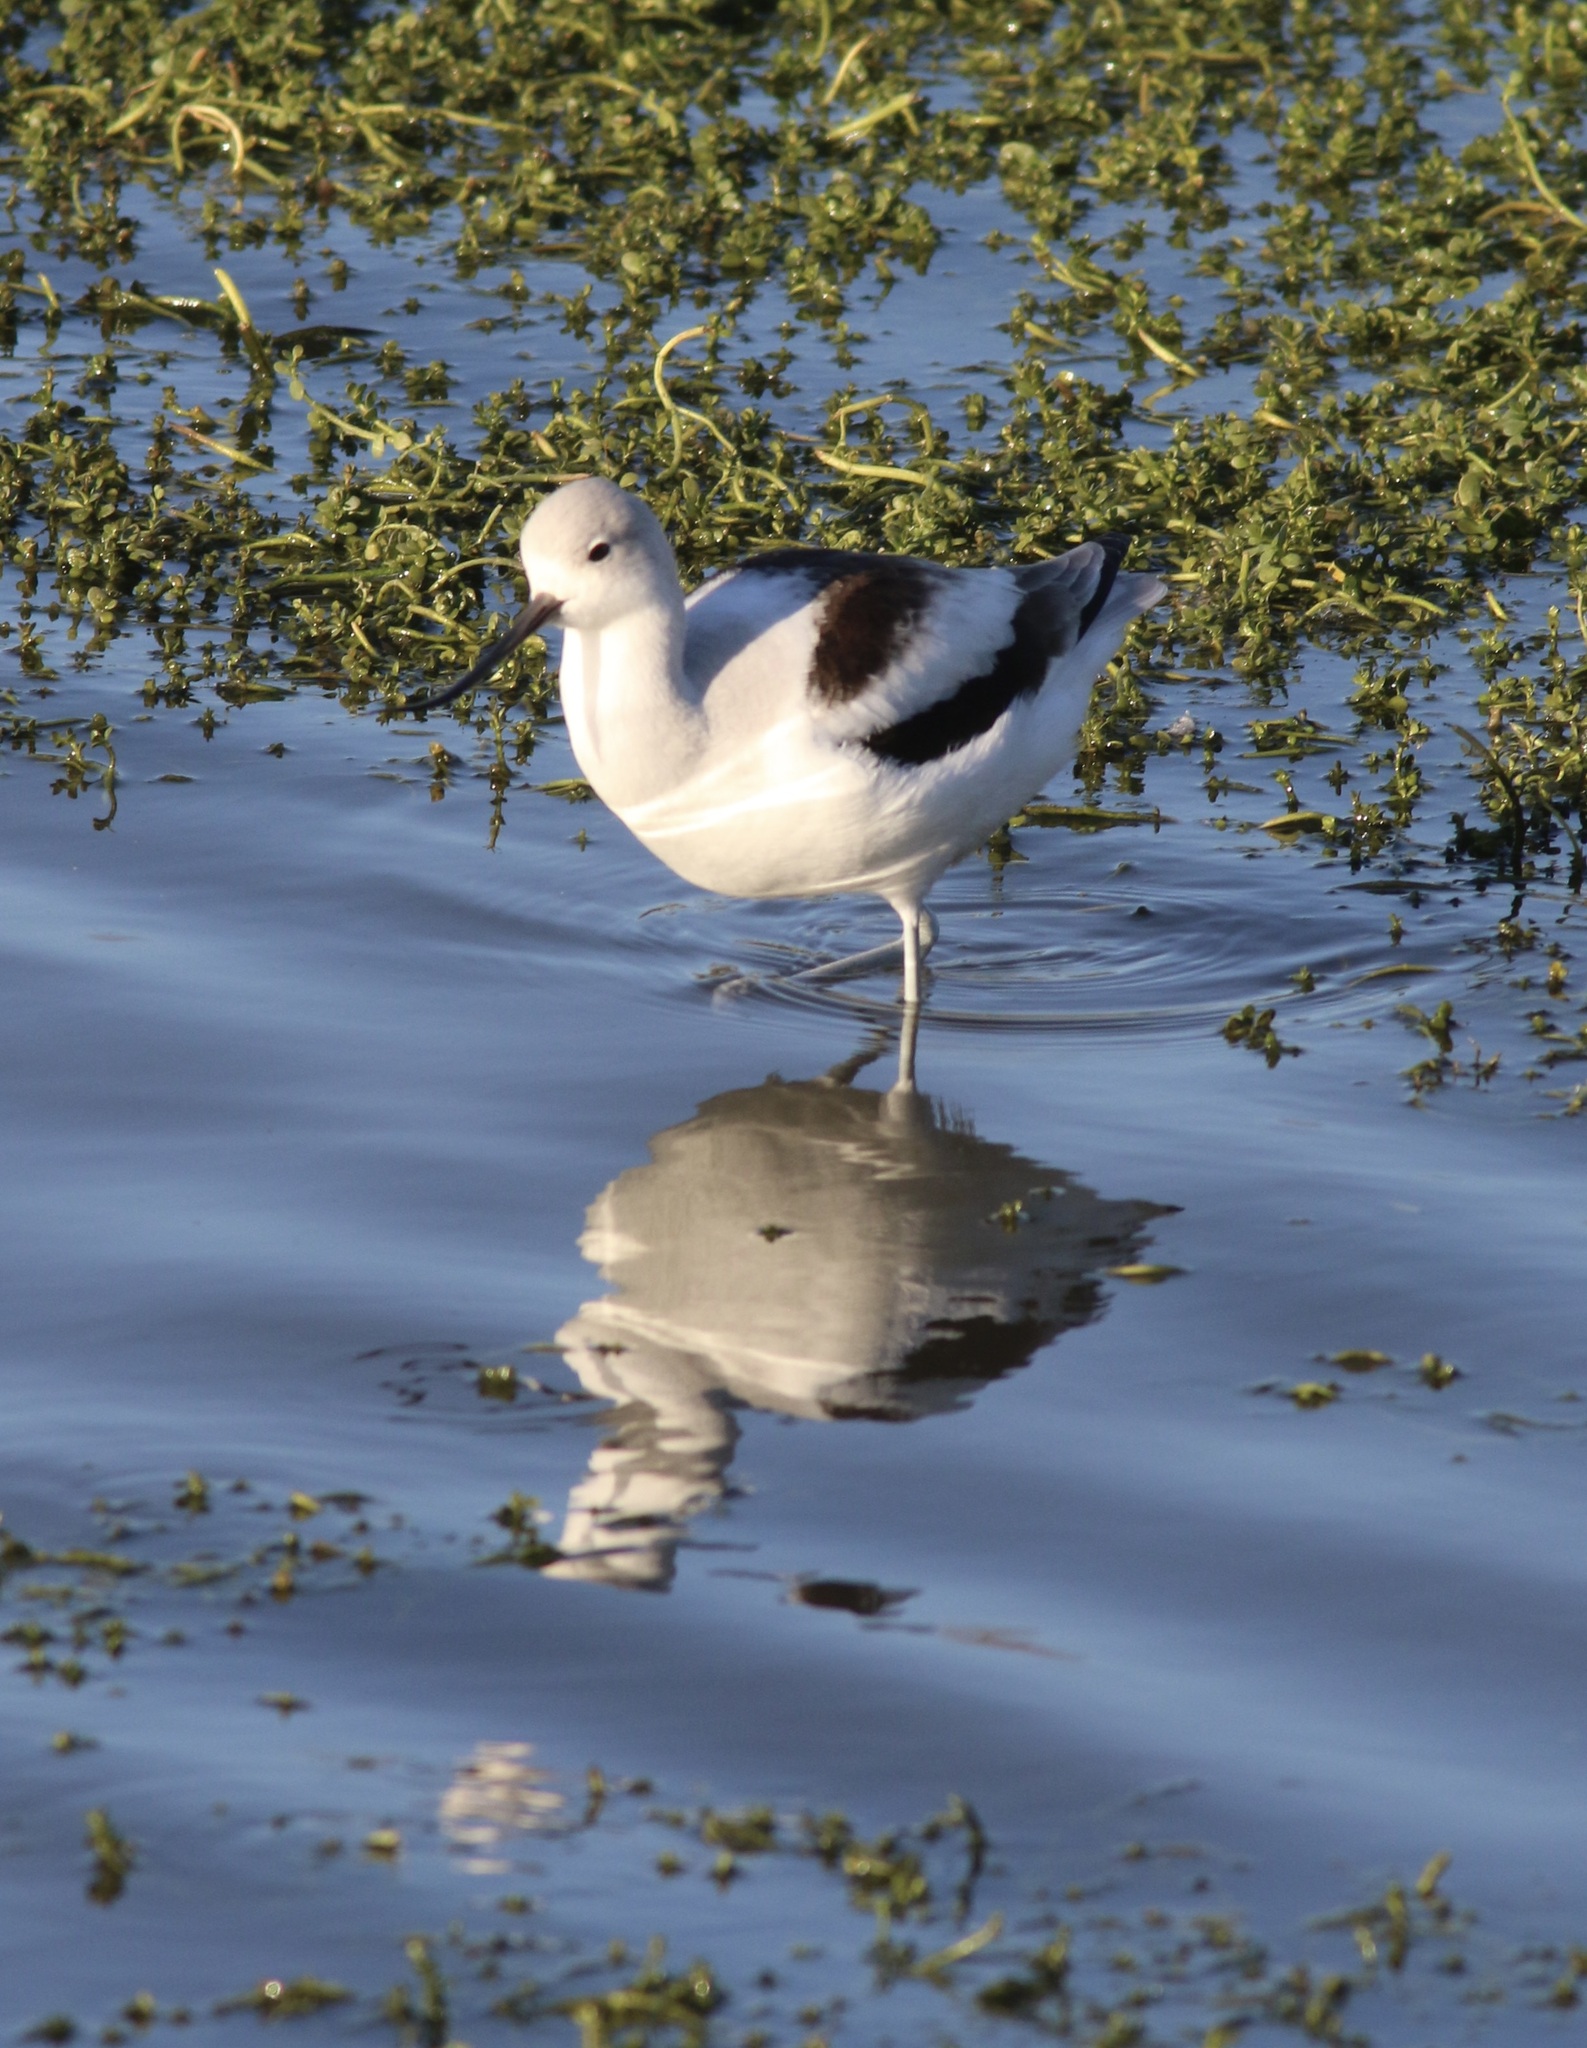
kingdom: Animalia
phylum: Chordata
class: Aves
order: Charadriiformes
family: Recurvirostridae
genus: Recurvirostra
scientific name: Recurvirostra americana
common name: American avocet
